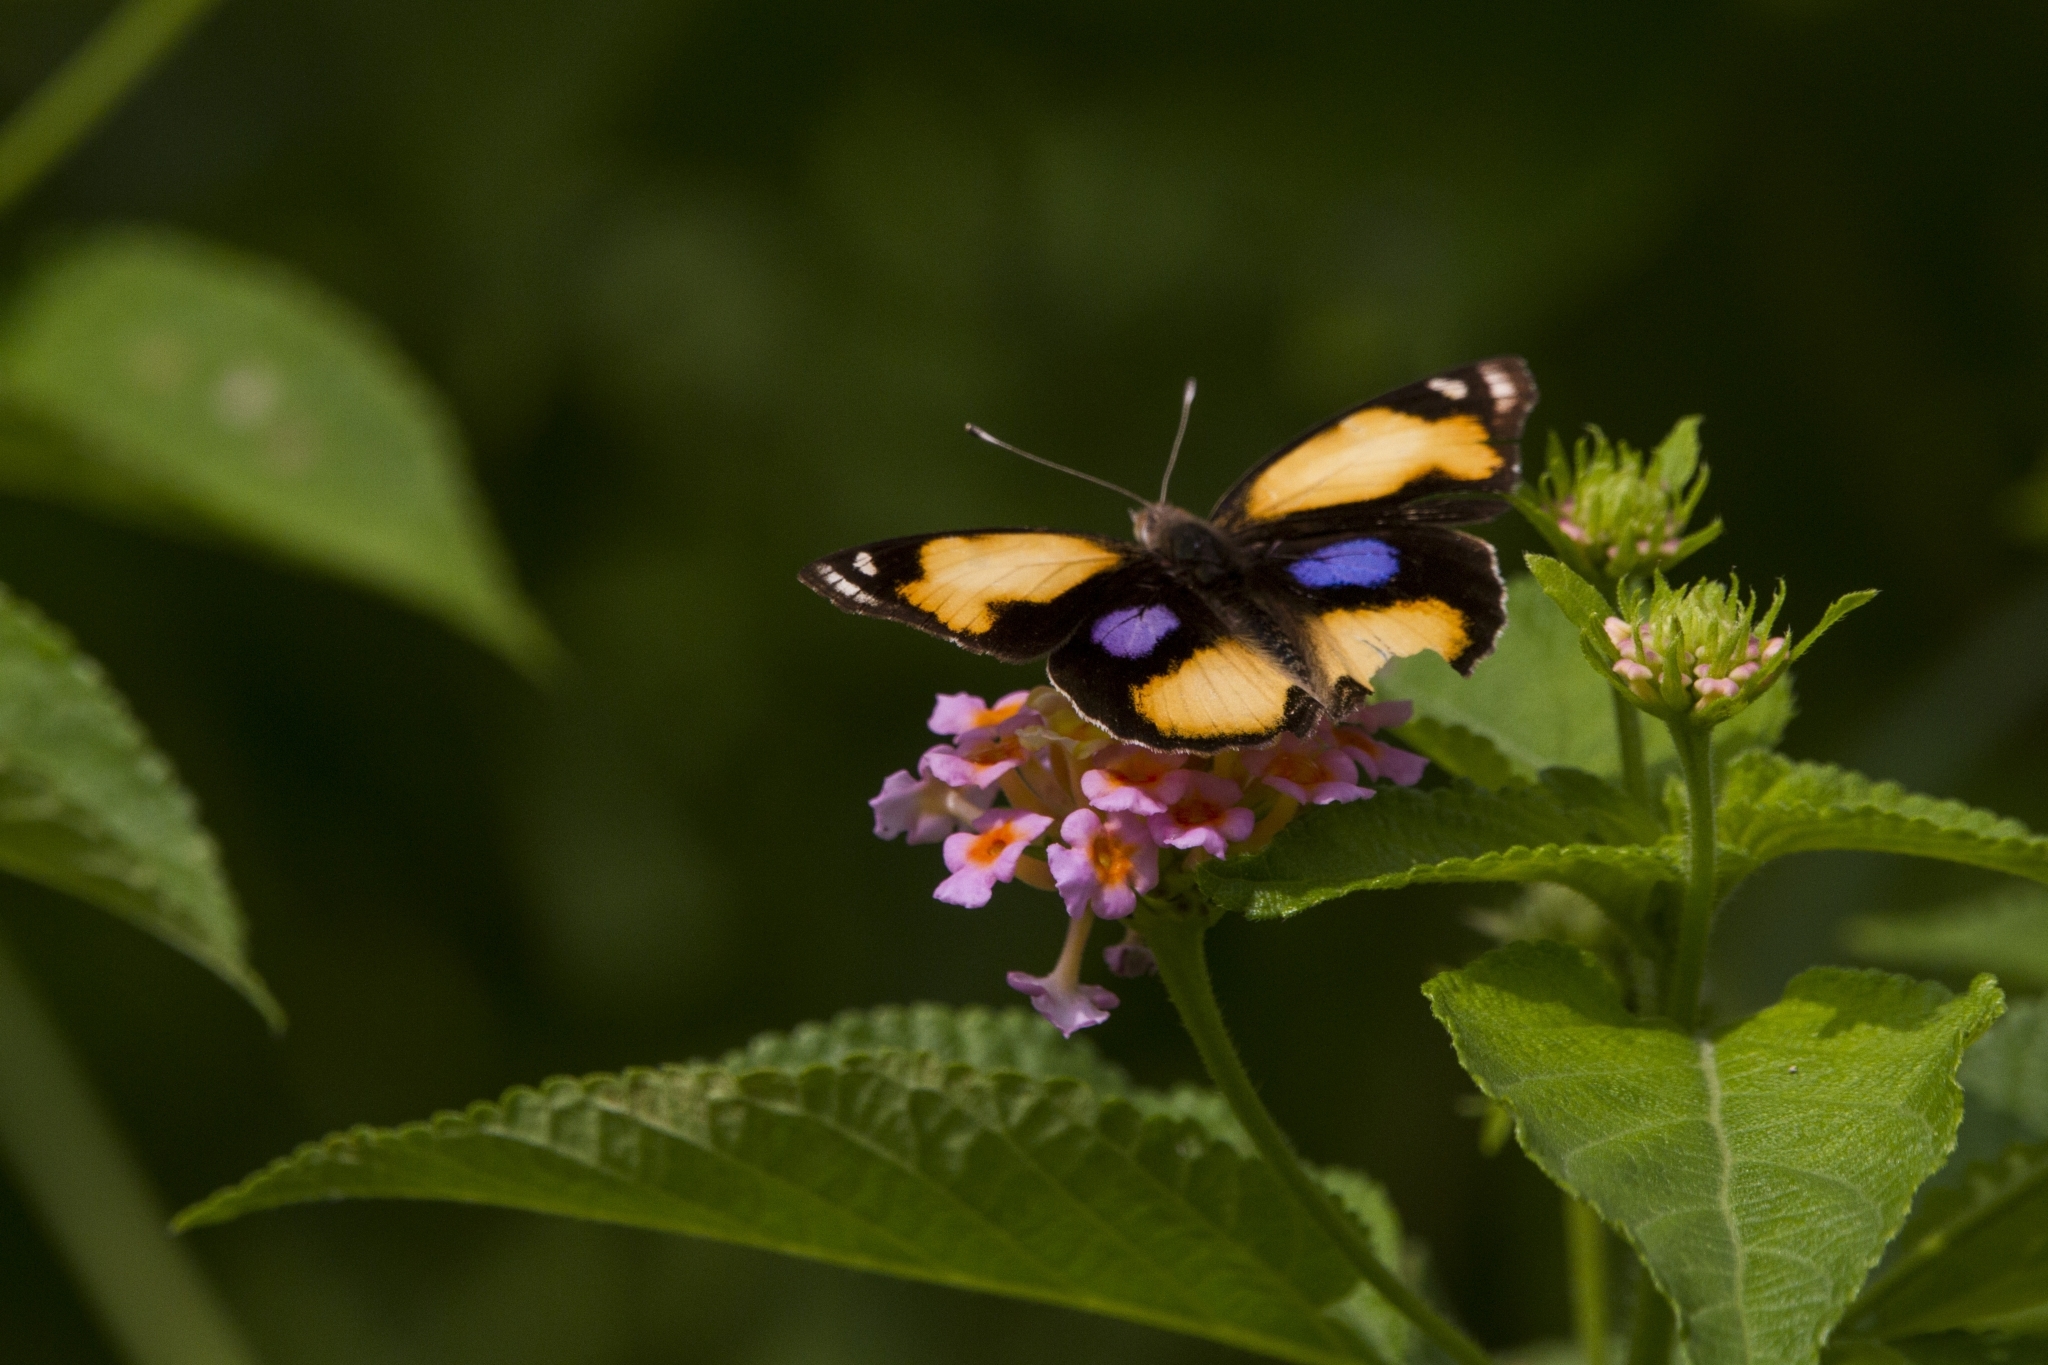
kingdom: Animalia
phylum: Arthropoda
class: Insecta
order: Lepidoptera
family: Nymphalidae
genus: Junonia
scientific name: Junonia hierta
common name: Yellow pansy
